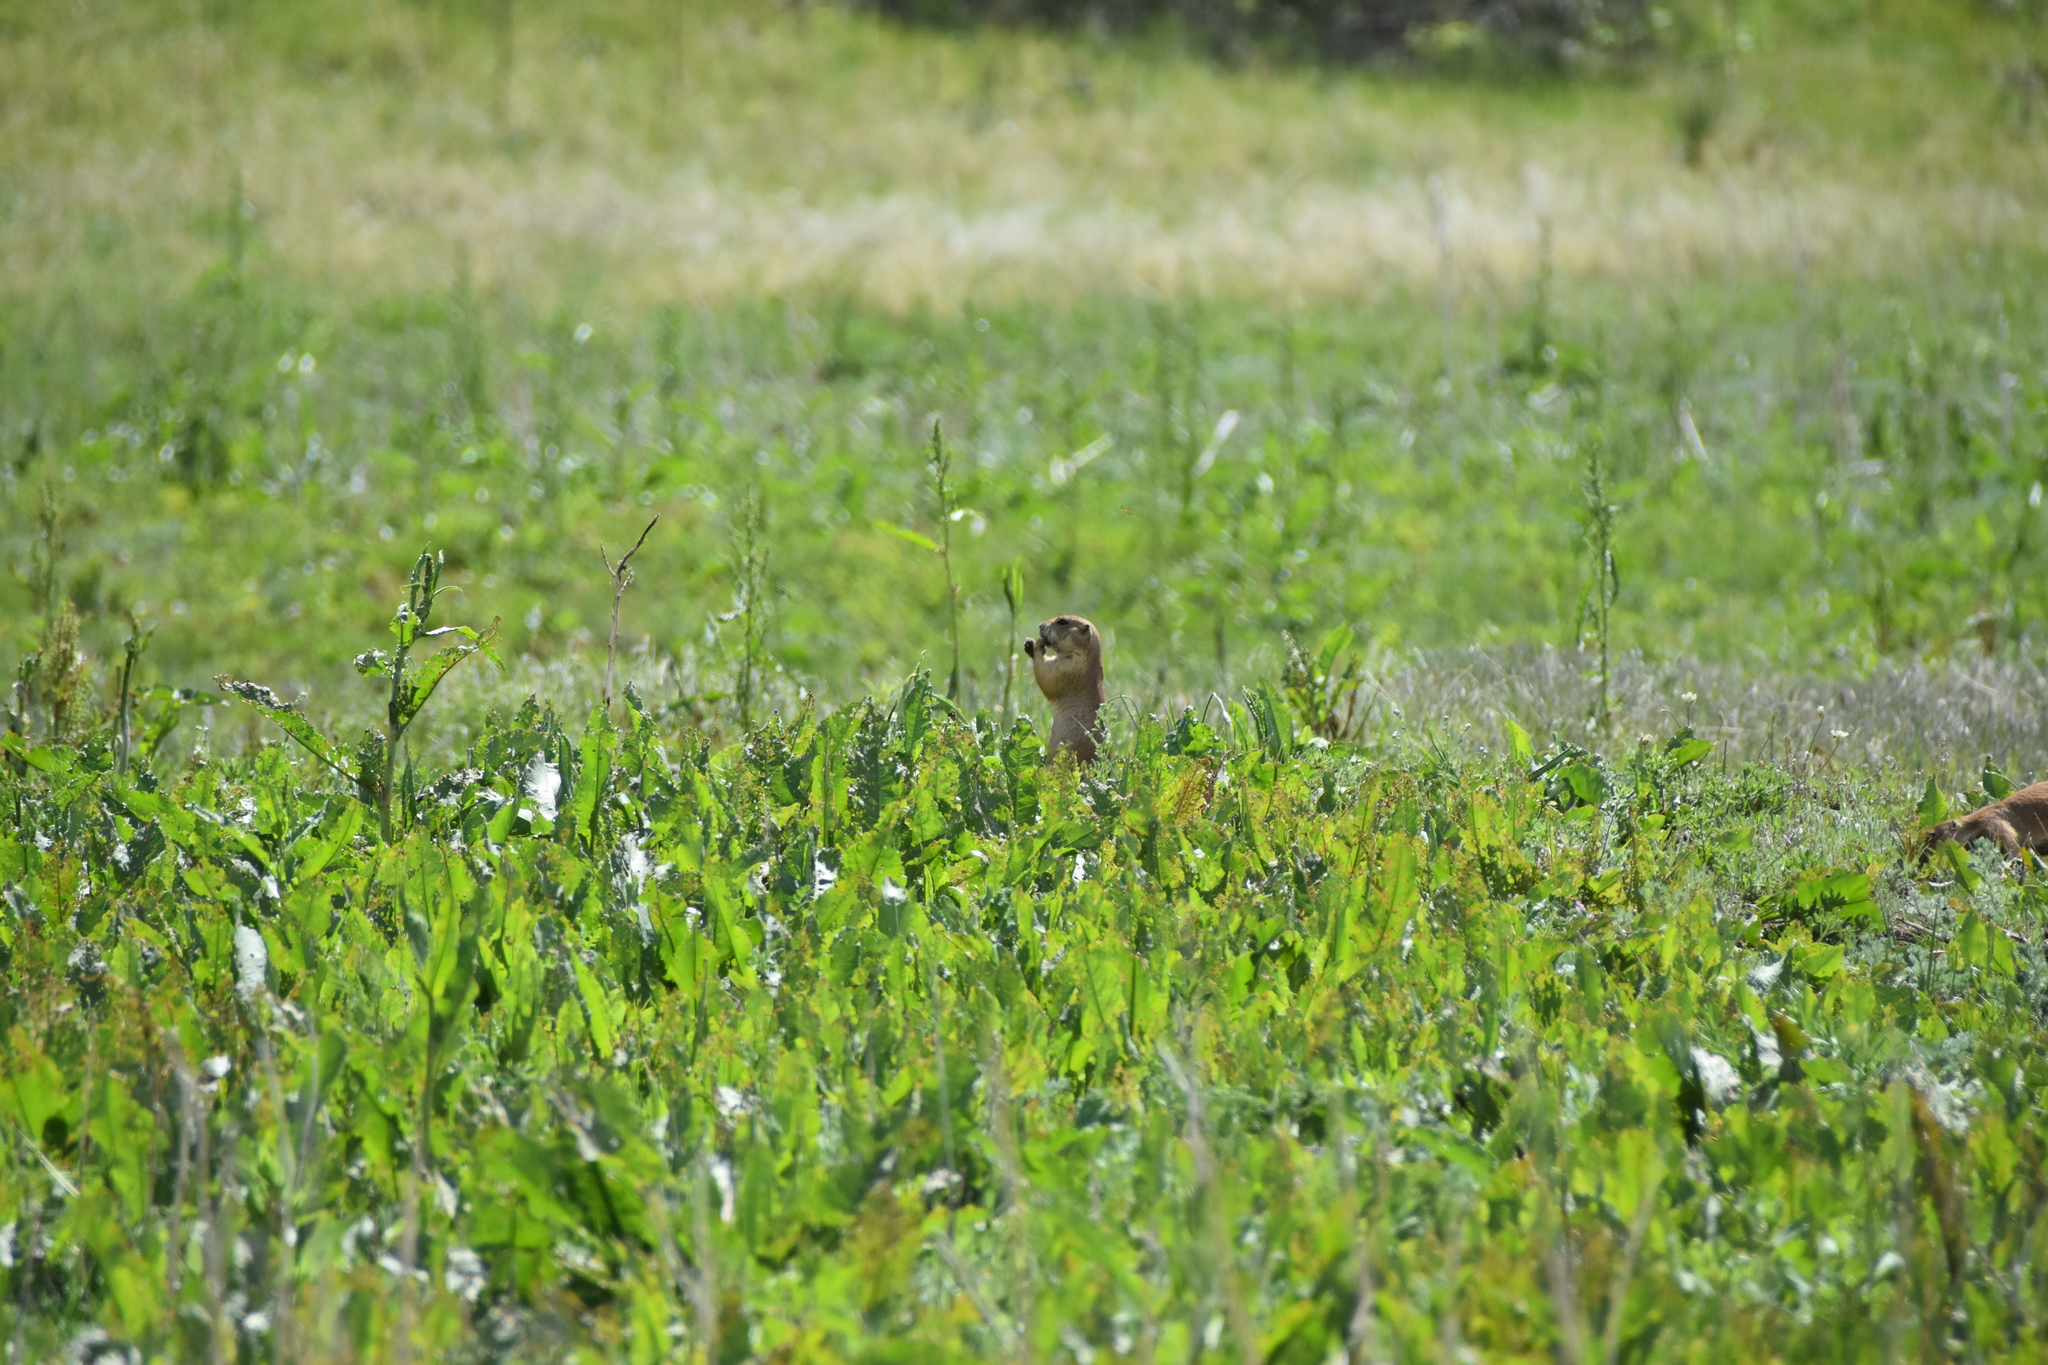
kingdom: Animalia
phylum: Chordata
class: Mammalia
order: Rodentia
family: Sciuridae
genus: Cynomys
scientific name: Cynomys ludovicianus
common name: Black-tailed prairie dog
